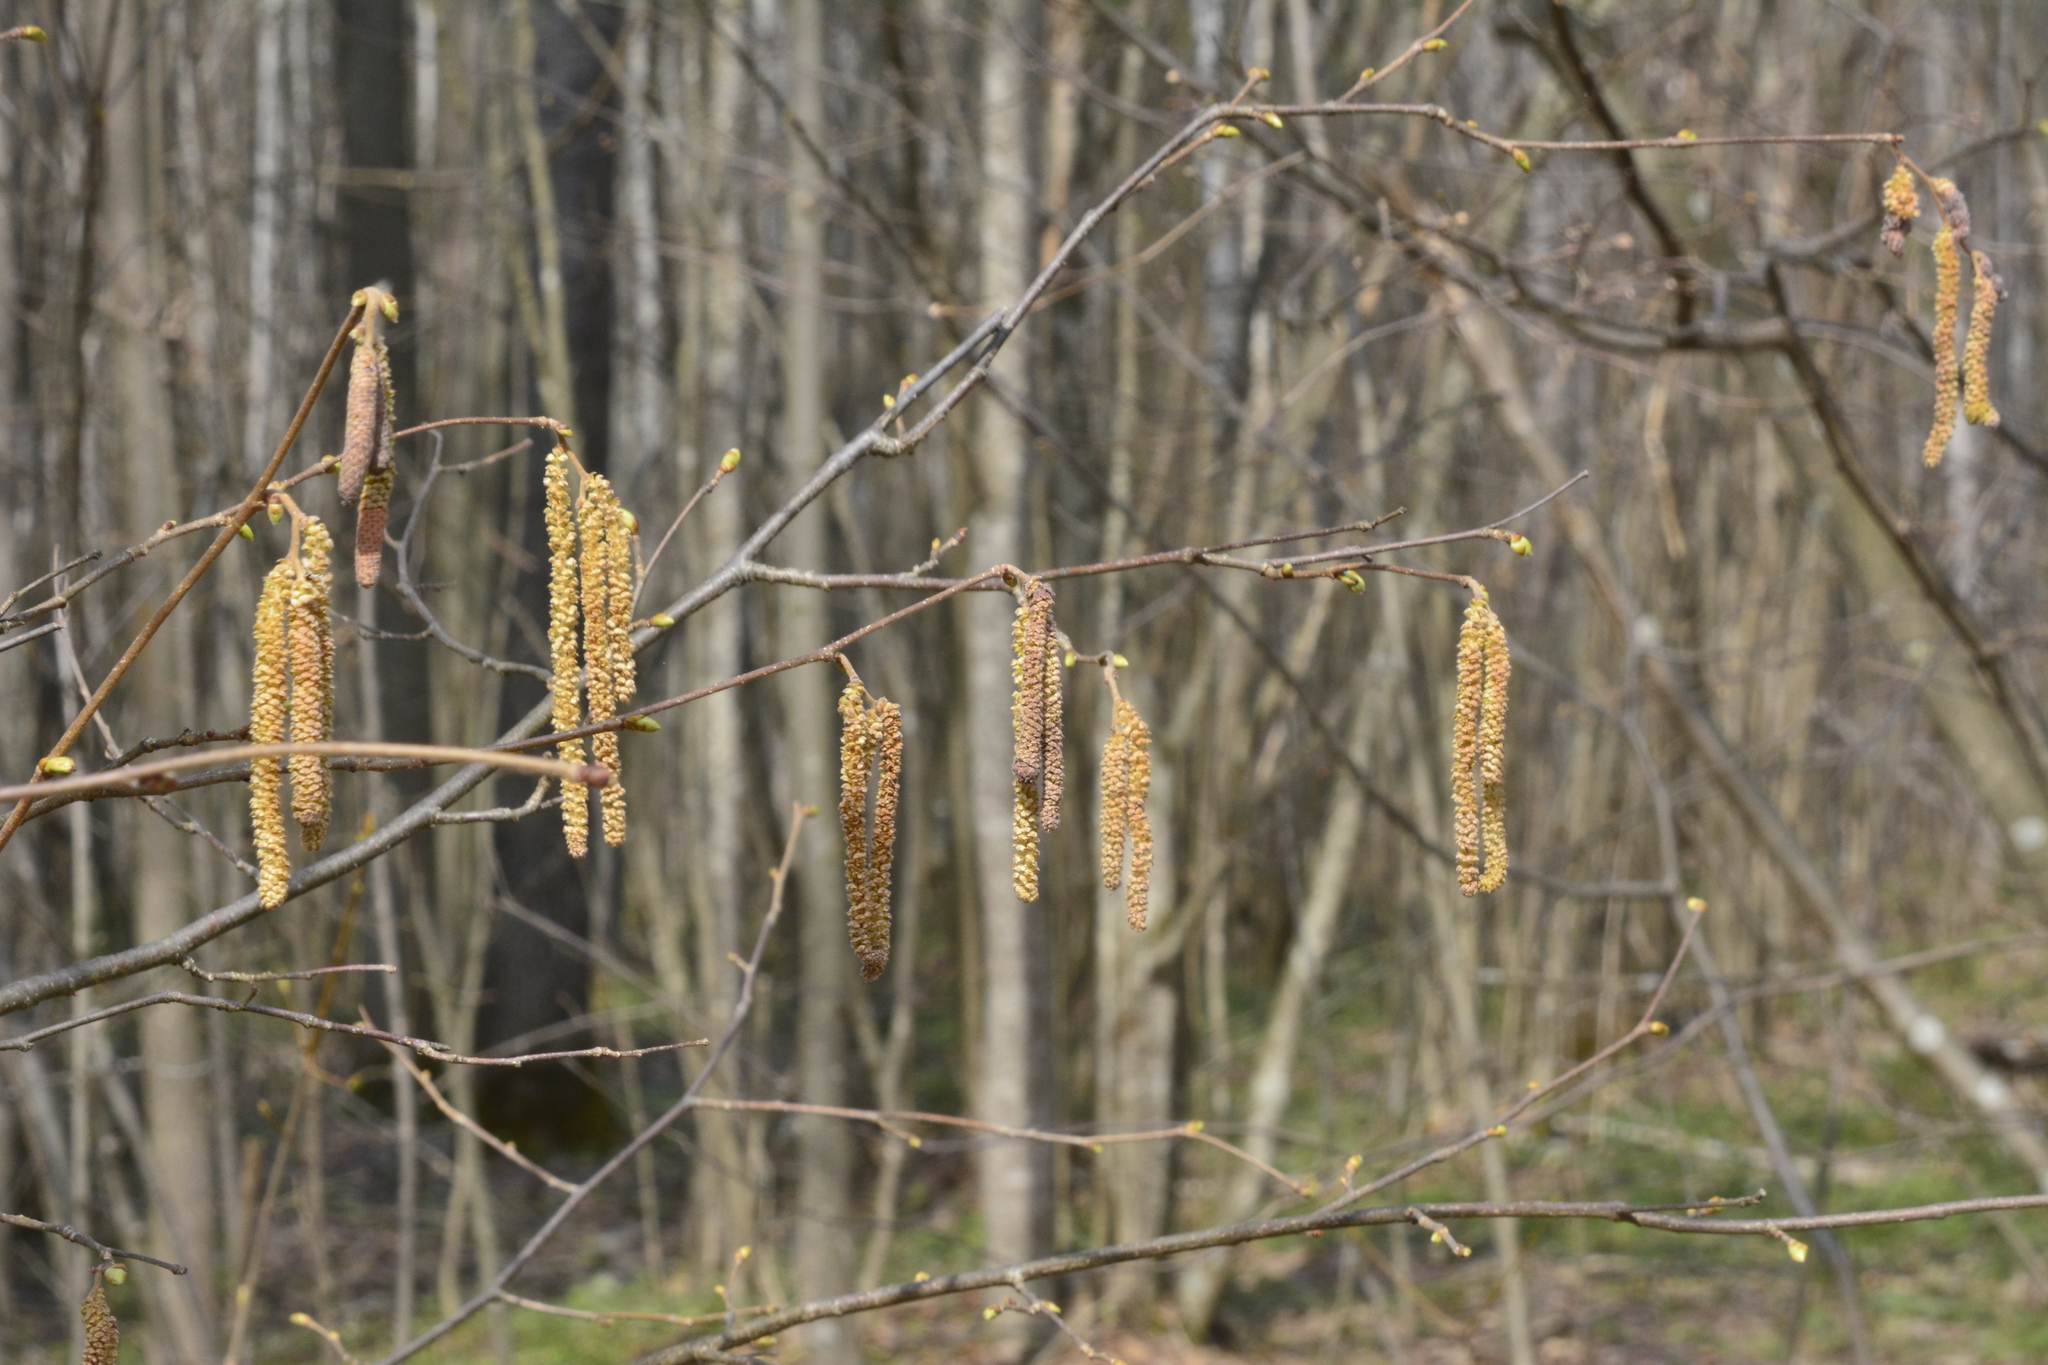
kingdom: Plantae
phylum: Tracheophyta
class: Magnoliopsida
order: Fagales
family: Betulaceae
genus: Corylus
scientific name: Corylus avellana
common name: European hazel
